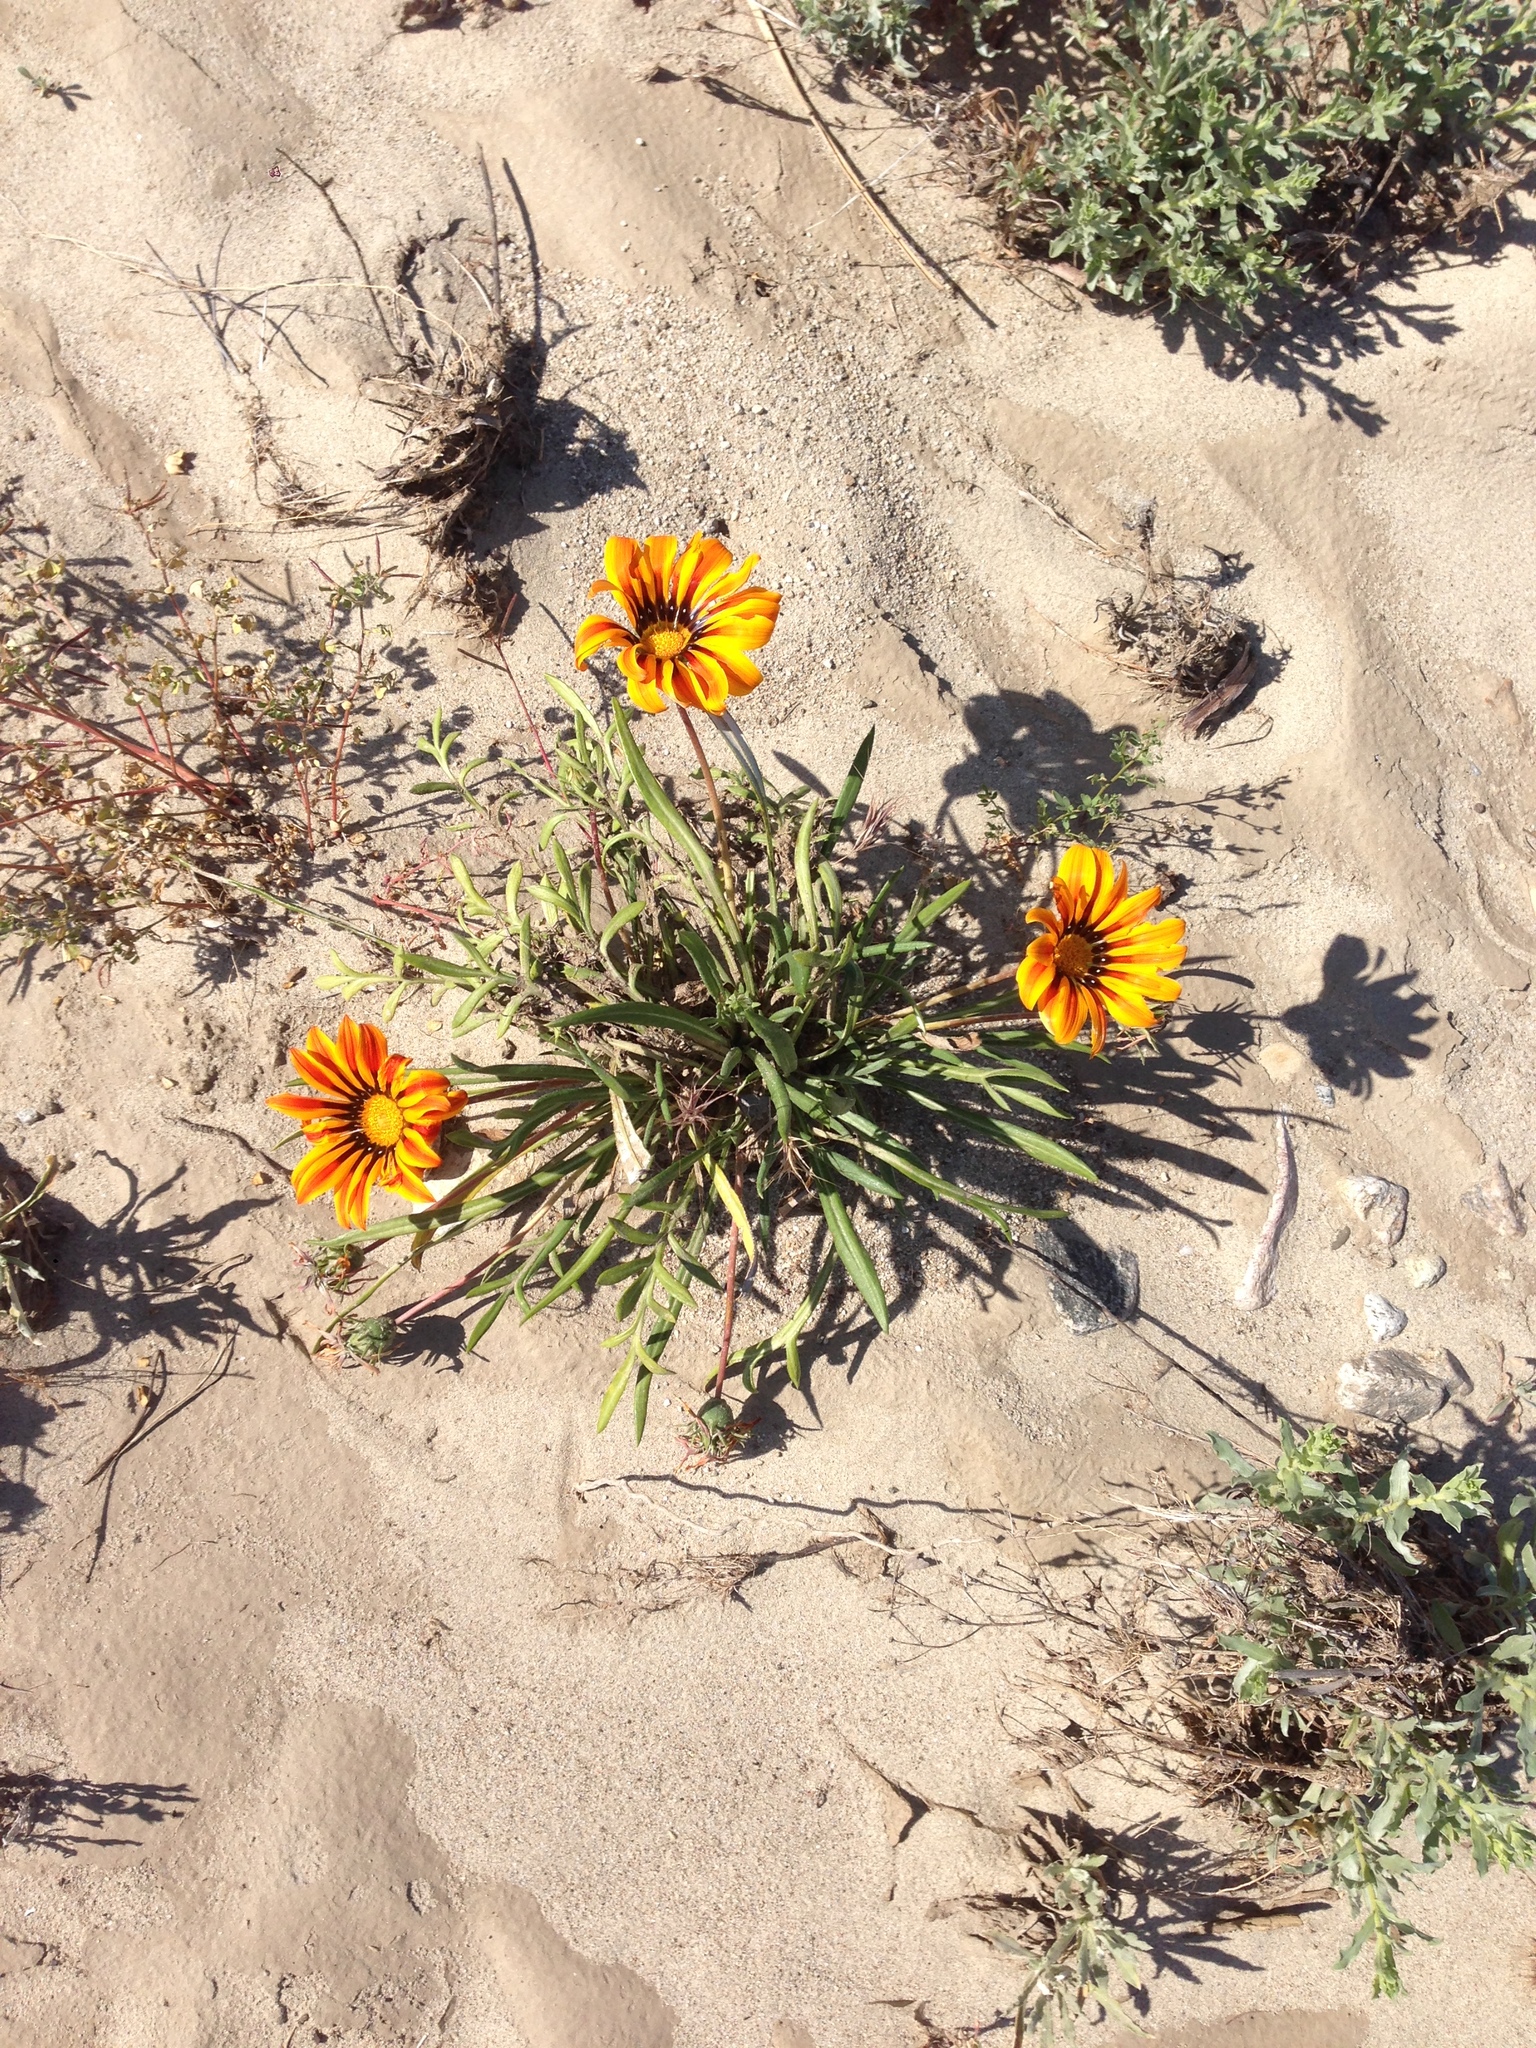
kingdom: Plantae
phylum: Tracheophyta
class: Magnoliopsida
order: Asterales
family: Asteraceae
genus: Gazania
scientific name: Gazania linearis
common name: Treasureflower
